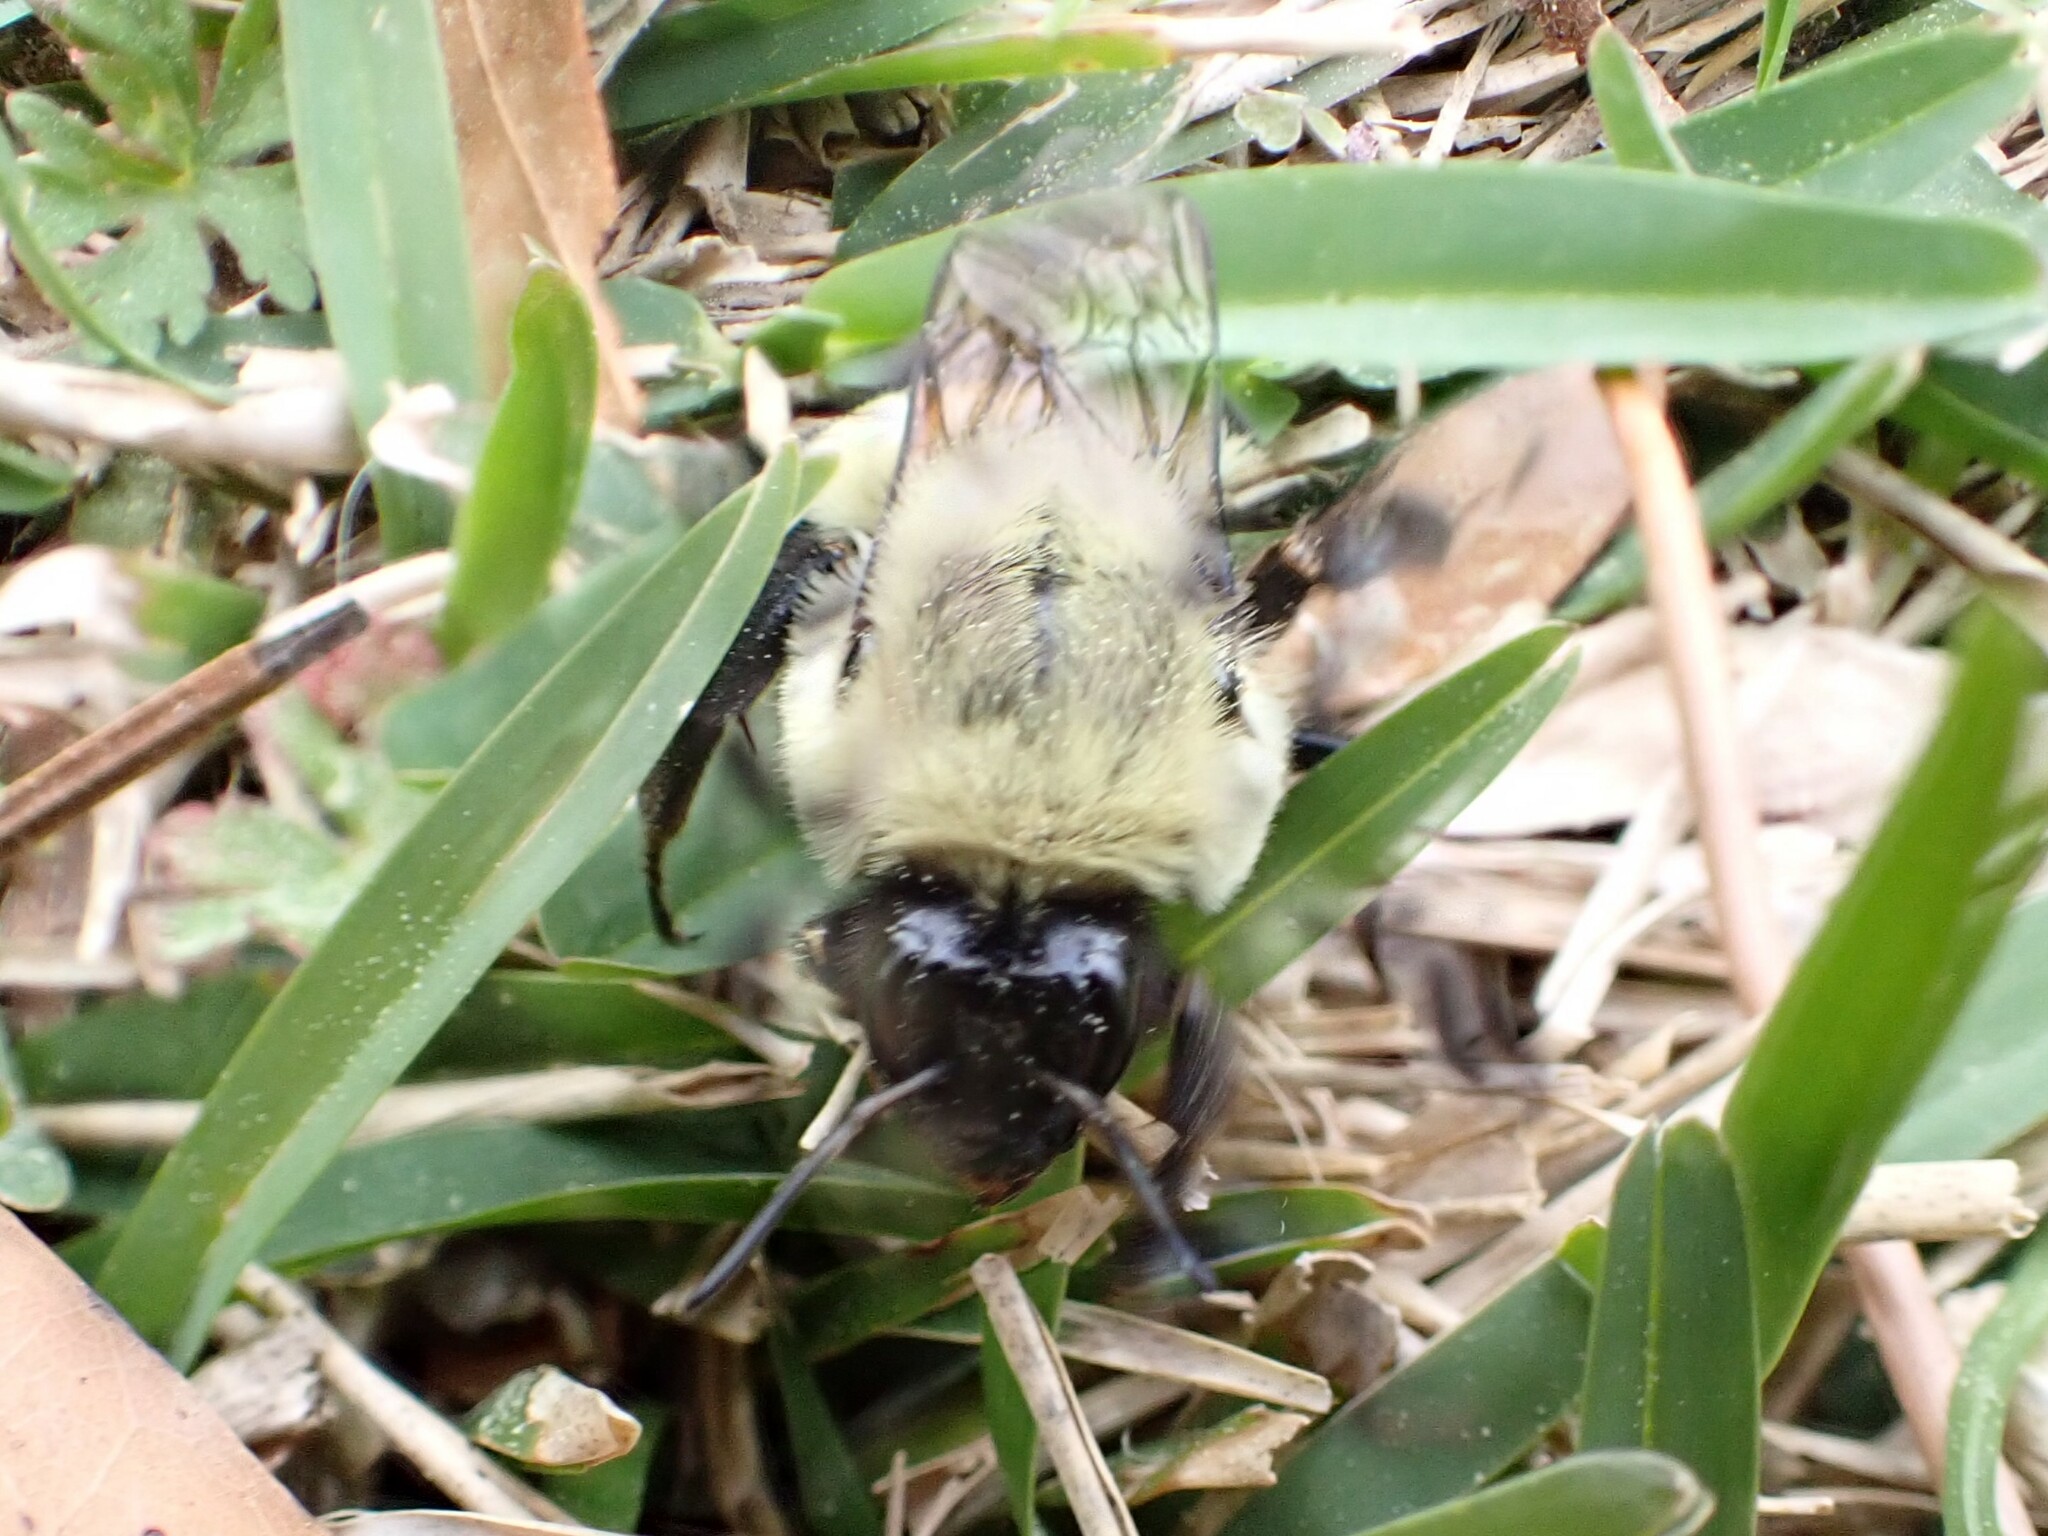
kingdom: Animalia
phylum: Arthropoda
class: Insecta
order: Hymenoptera
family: Apidae
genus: Bombus
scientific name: Bombus impatiens
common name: Common eastern bumble bee
